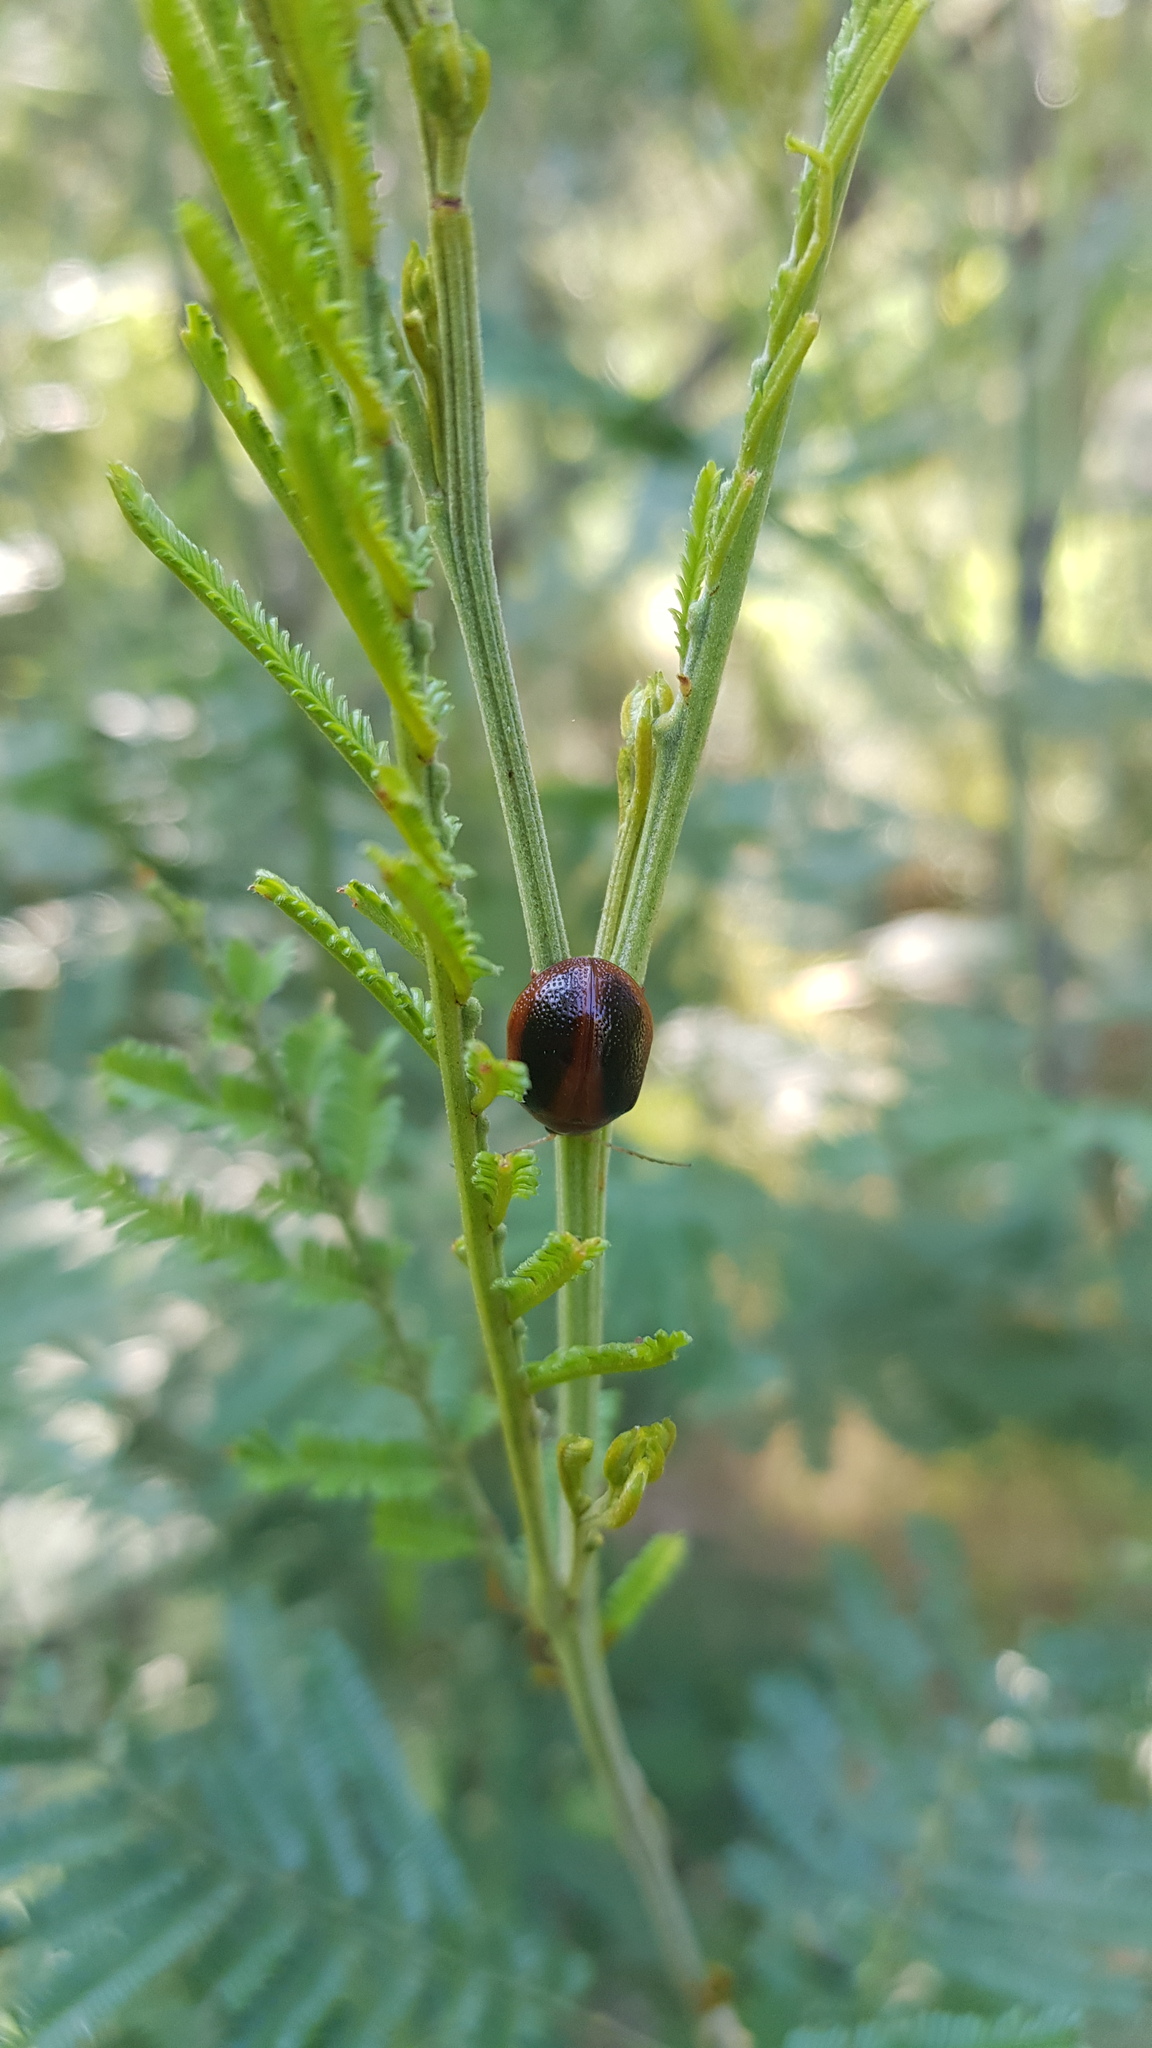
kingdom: Animalia
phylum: Arthropoda
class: Insecta
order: Coleoptera
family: Chrysomelidae
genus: Dicranosterna
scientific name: Dicranosterna
